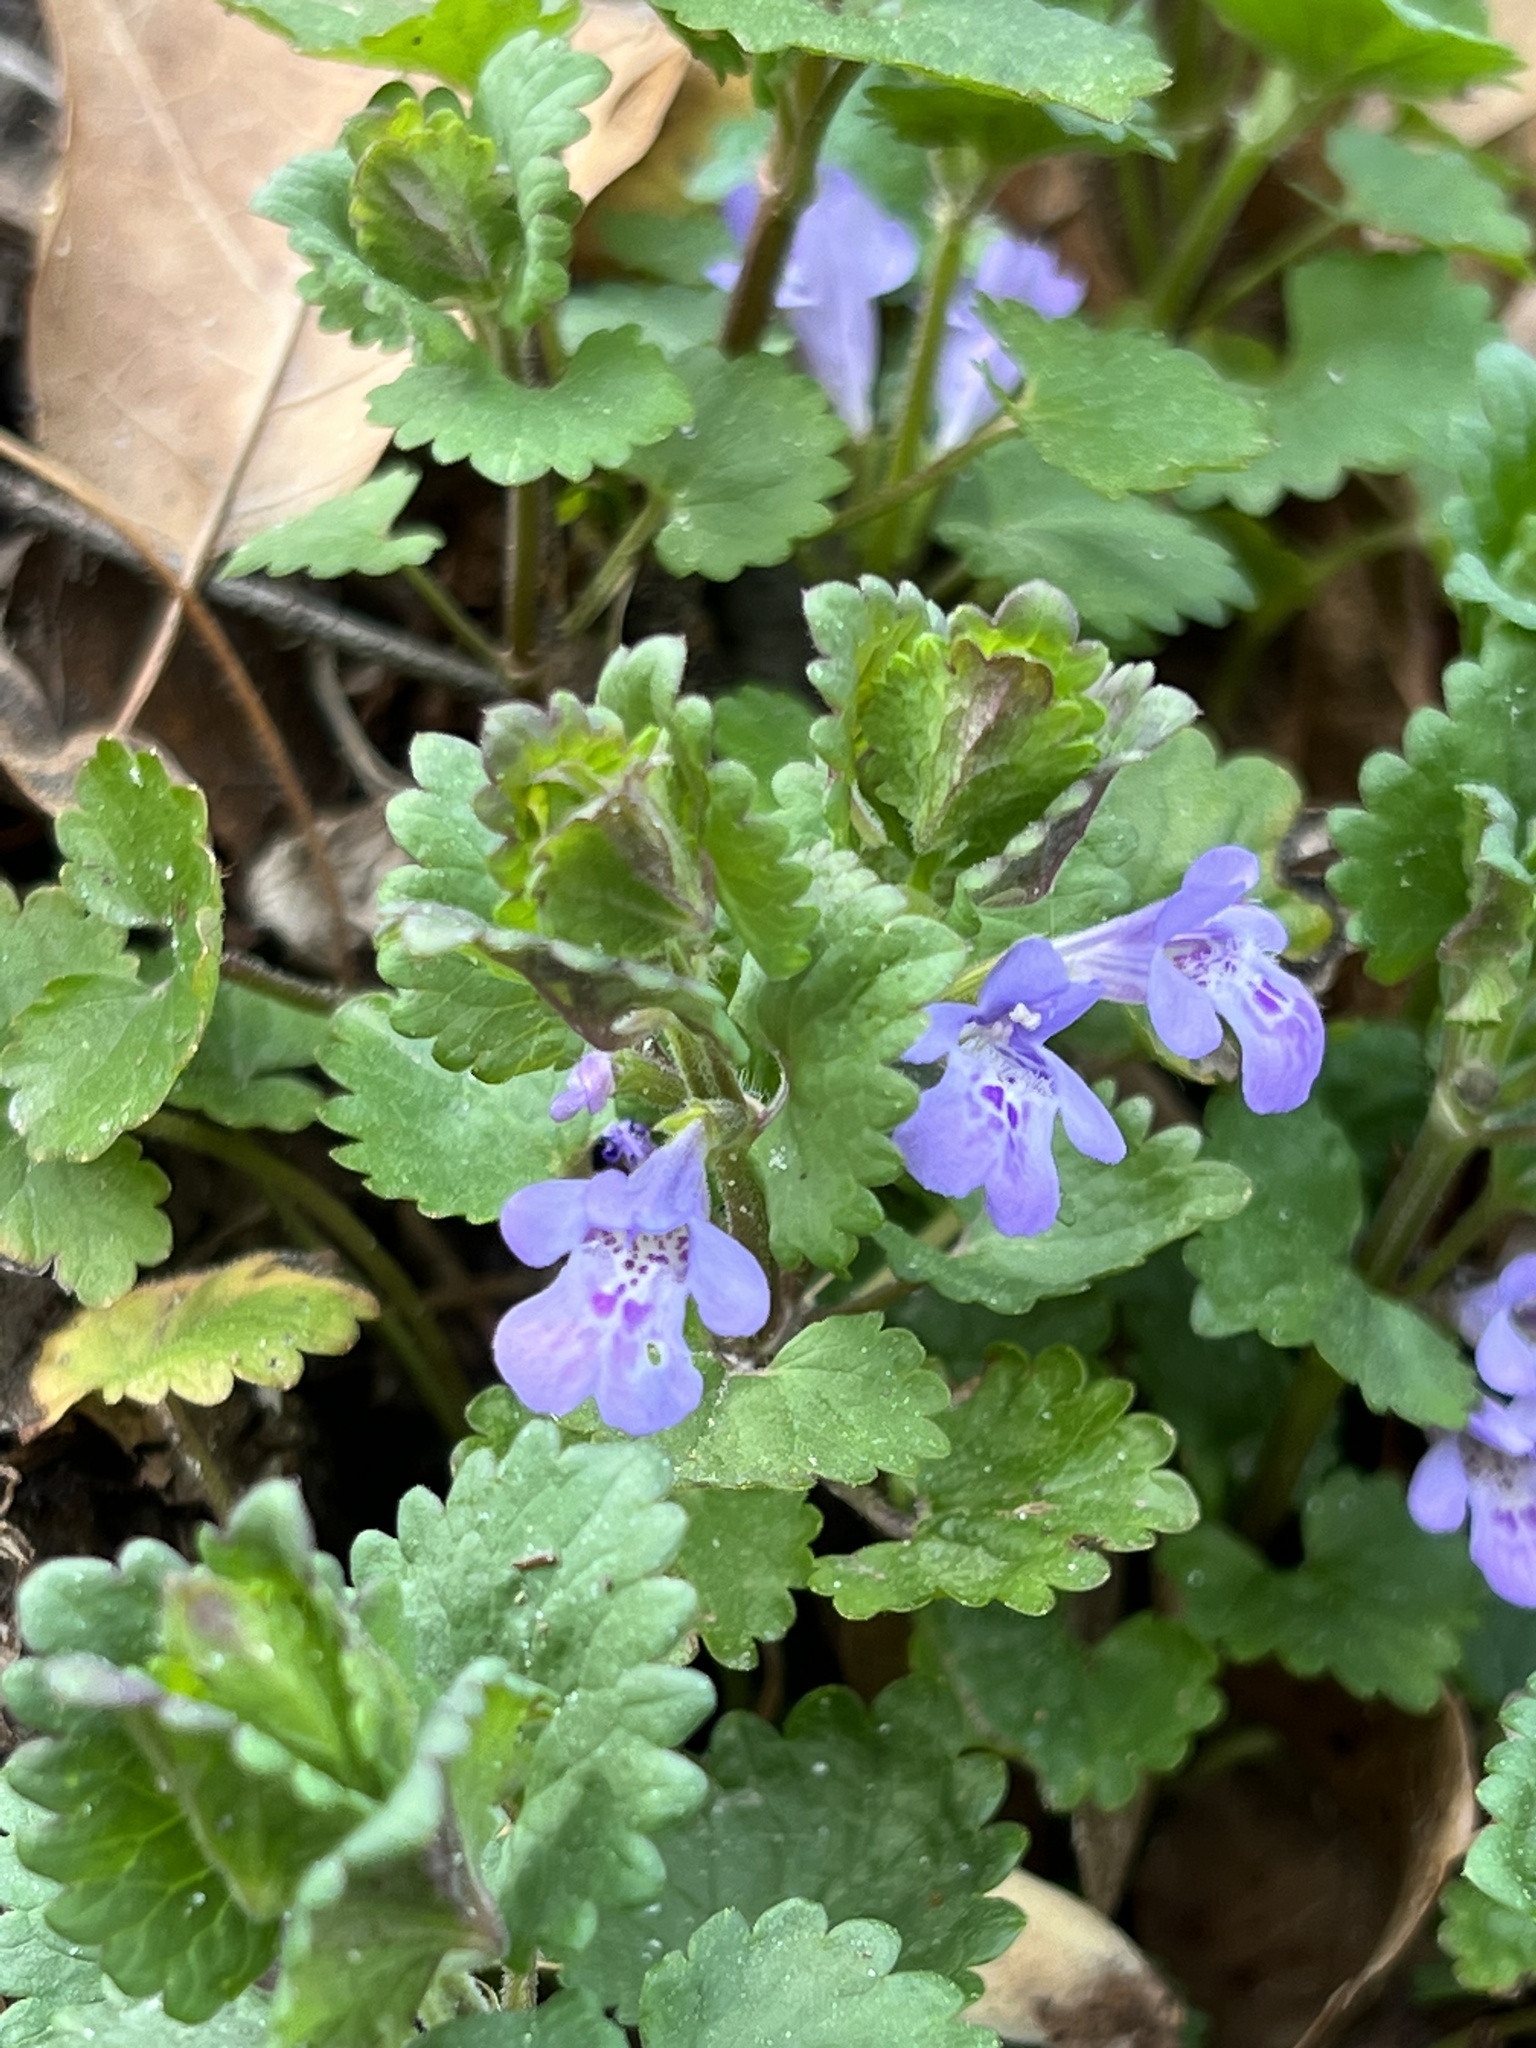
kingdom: Plantae
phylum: Tracheophyta
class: Magnoliopsida
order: Lamiales
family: Lamiaceae
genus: Glechoma
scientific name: Glechoma hederacea
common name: Ground ivy
